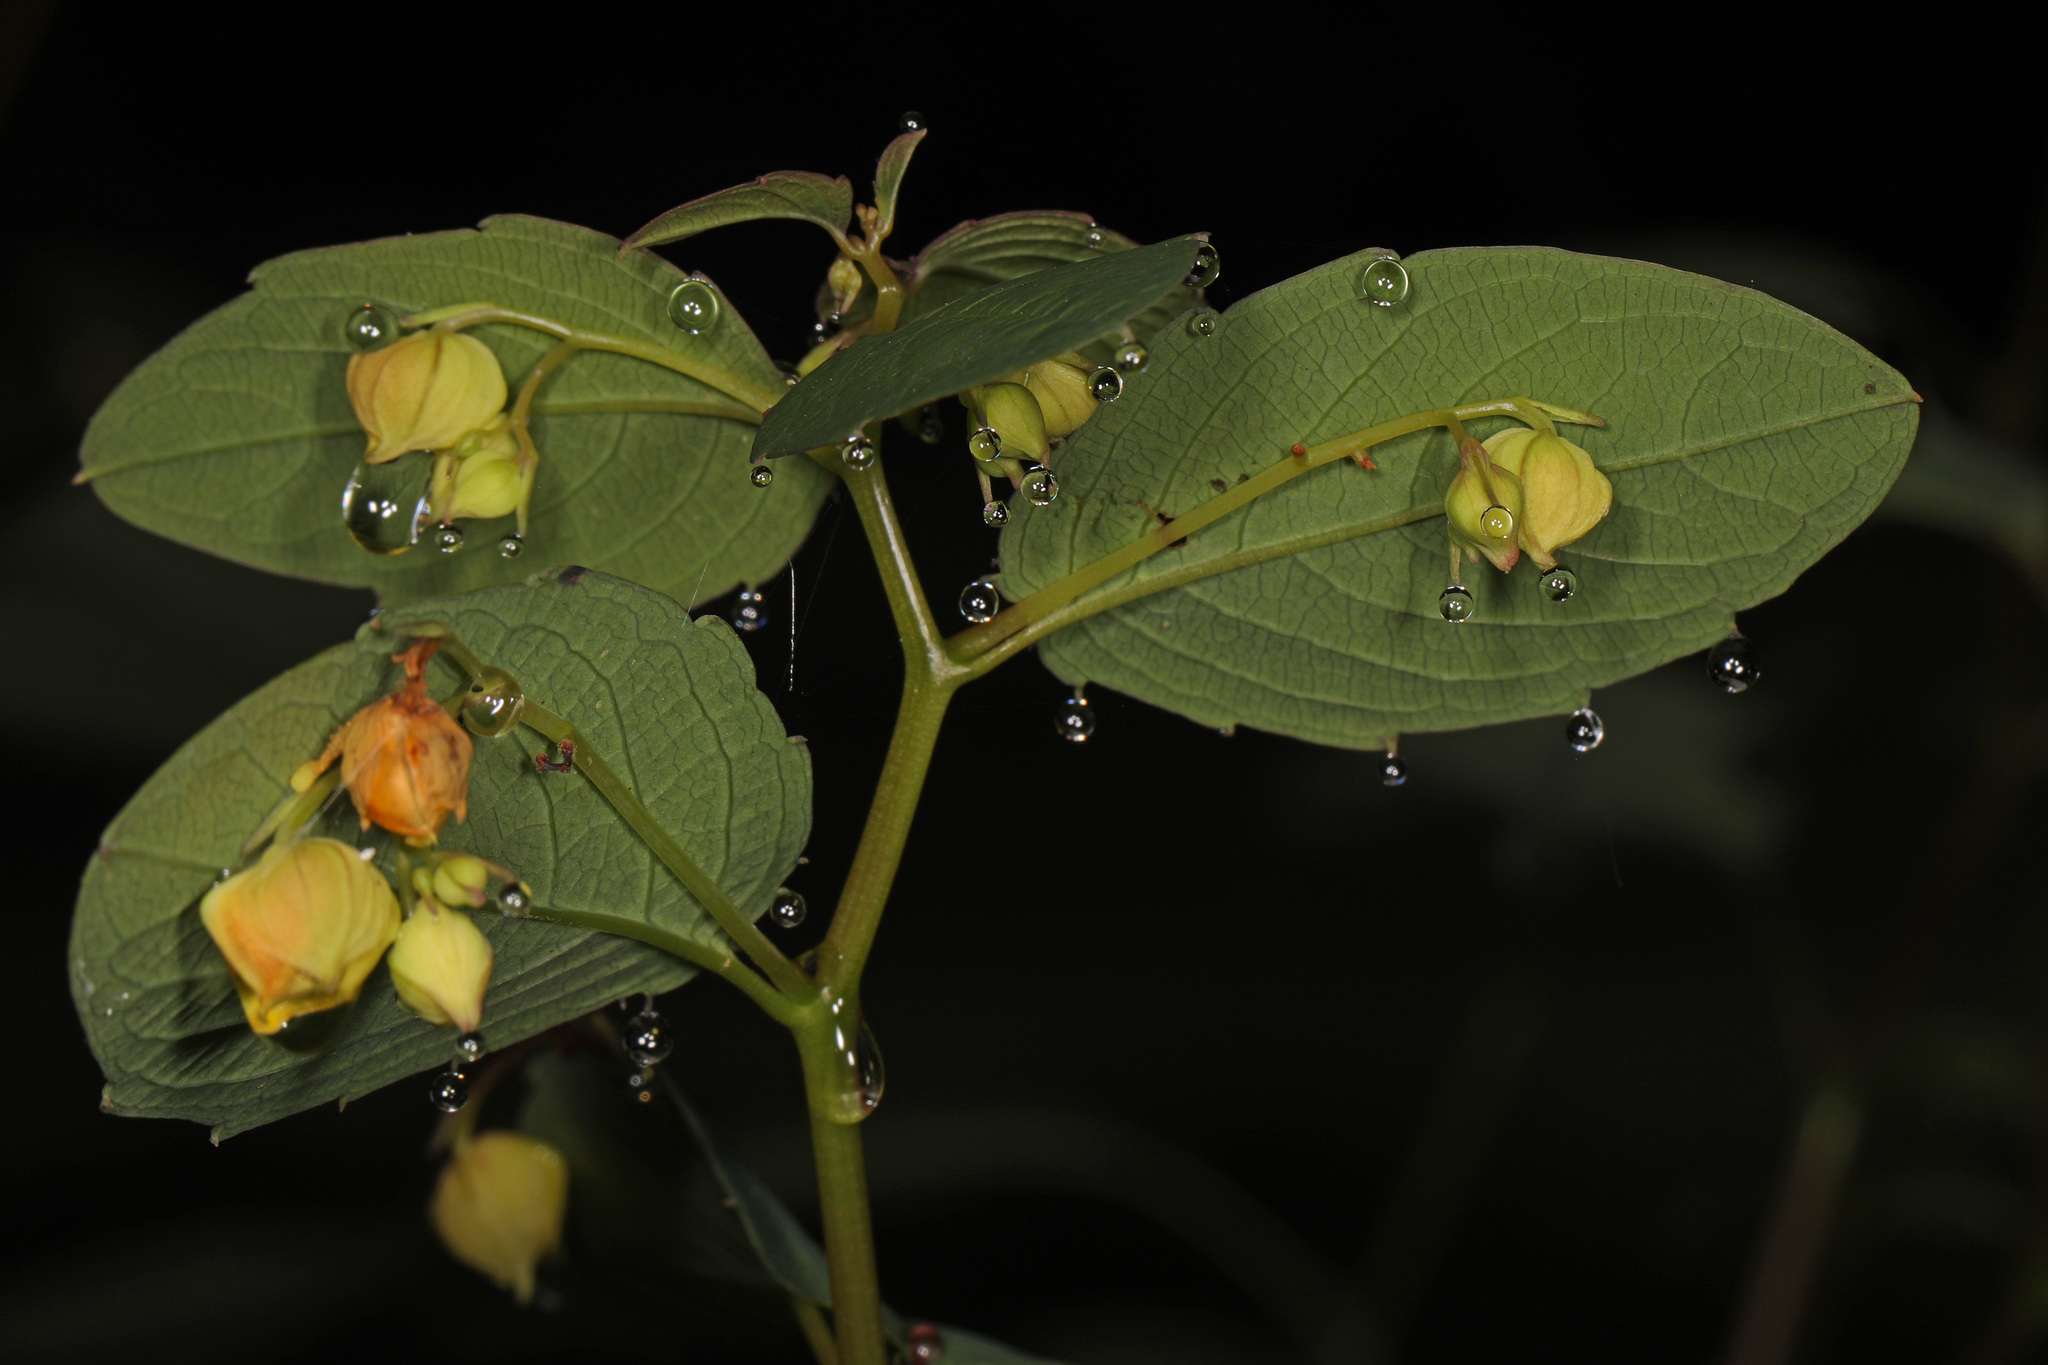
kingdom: Plantae
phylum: Tracheophyta
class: Magnoliopsida
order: Ericales
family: Balsaminaceae
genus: Impatiens
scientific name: Impatiens capensis
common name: Orange balsam
